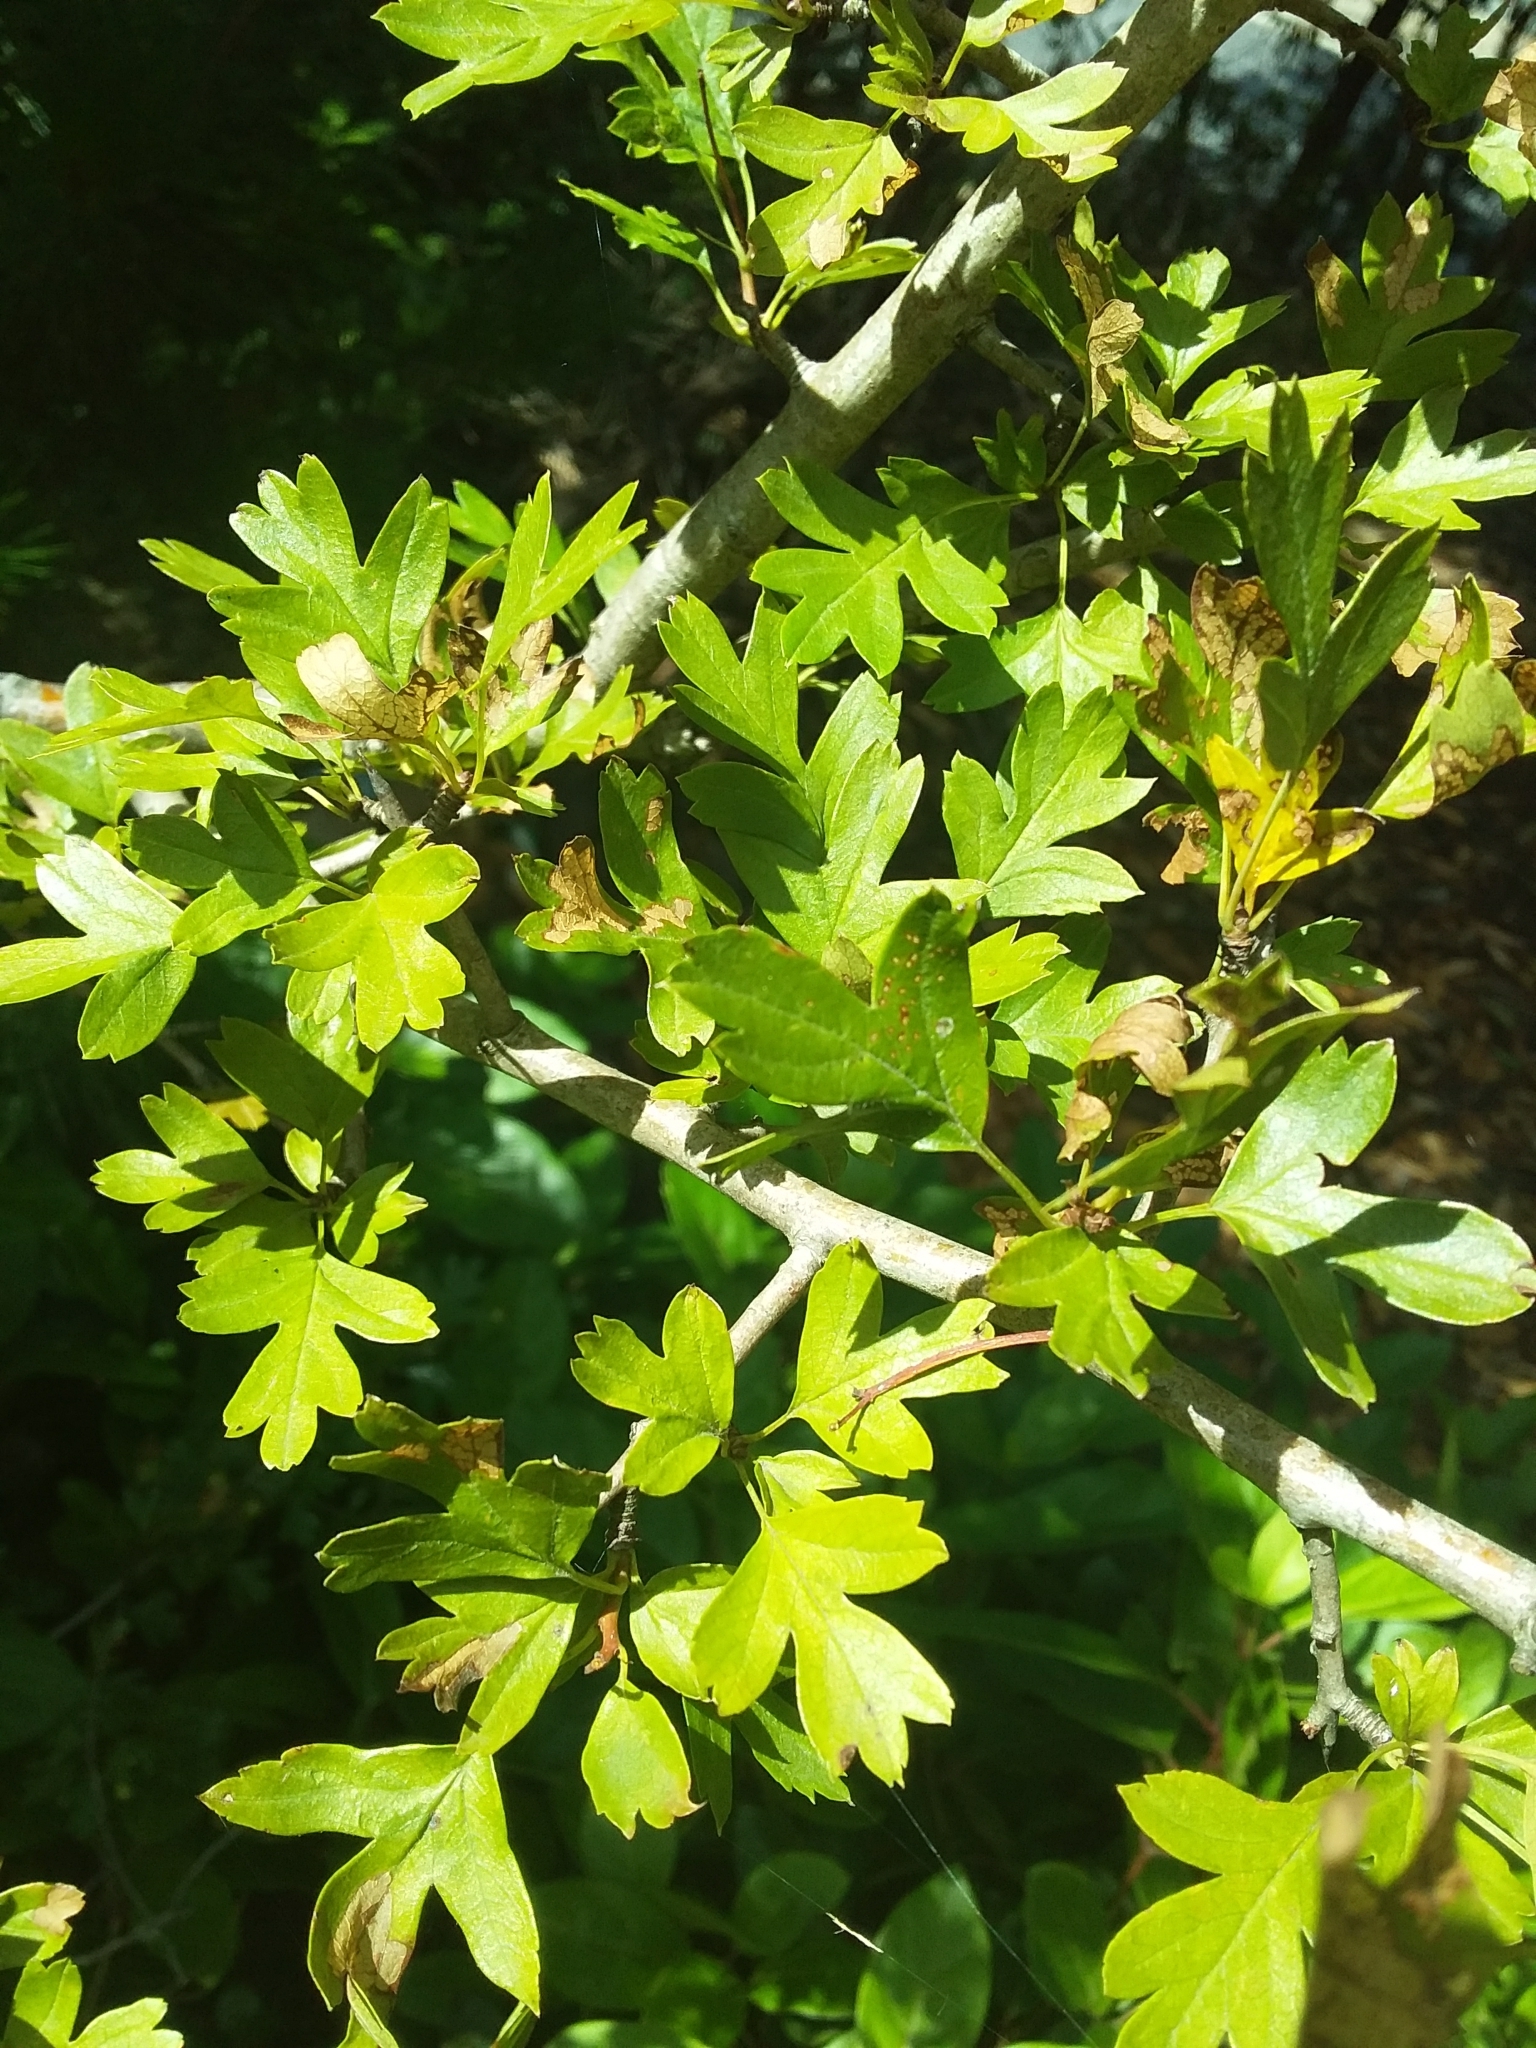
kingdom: Plantae
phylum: Tracheophyta
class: Magnoliopsida
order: Rosales
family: Rosaceae
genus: Crataegus
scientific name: Crataegus monogyna
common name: Hawthorn
